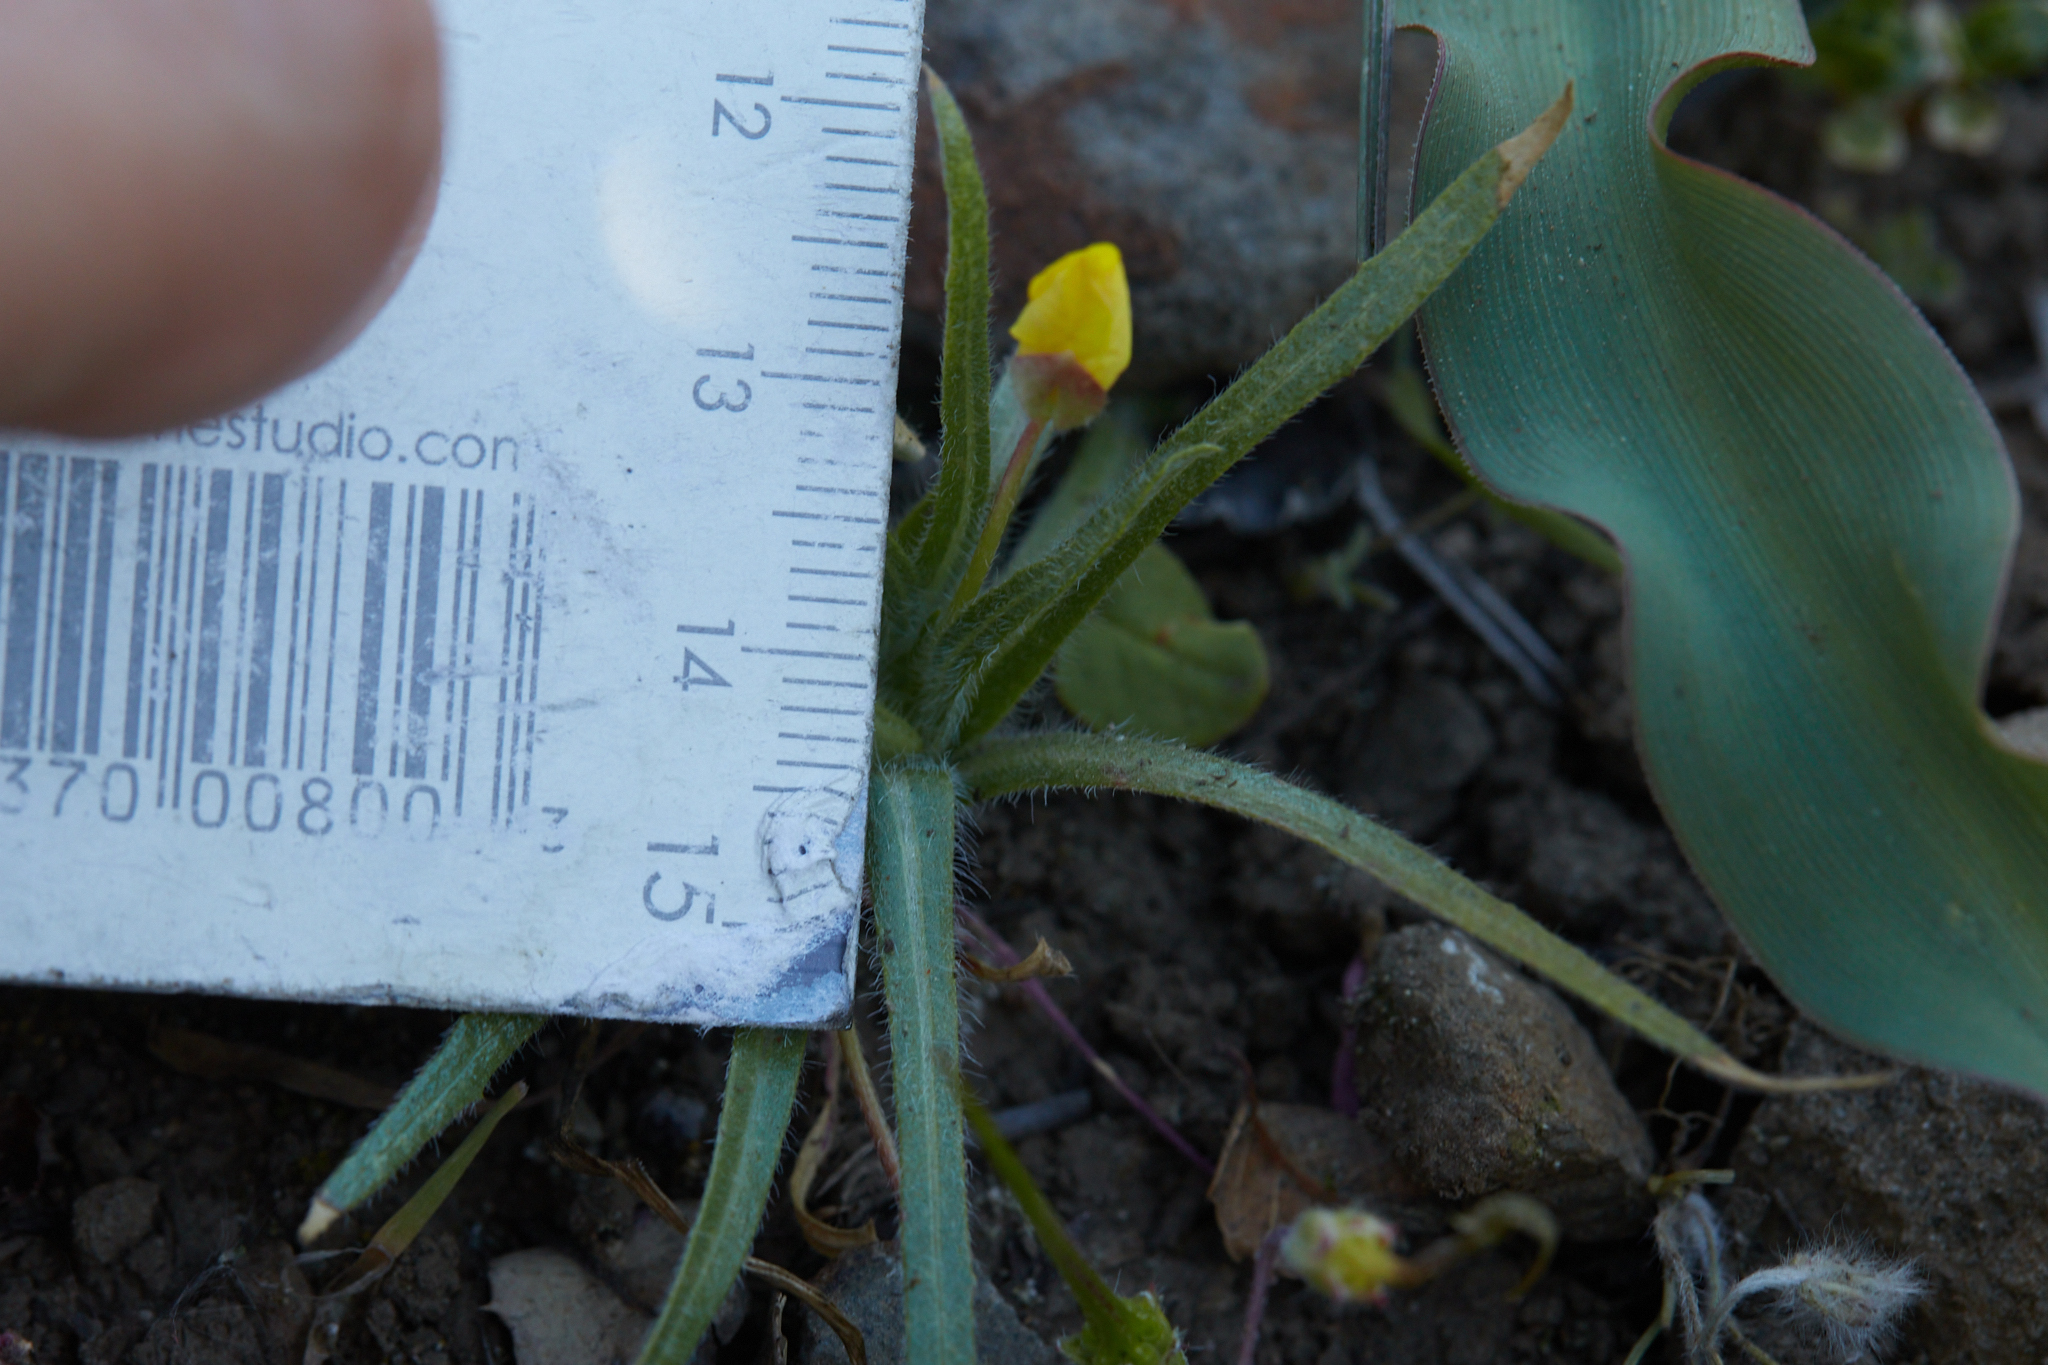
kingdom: Plantae
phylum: Tracheophyta
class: Magnoliopsida
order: Myrtales
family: Onagraceae
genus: Tetrapteron
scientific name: Tetrapteron graciliflorum
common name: Hill suncup
